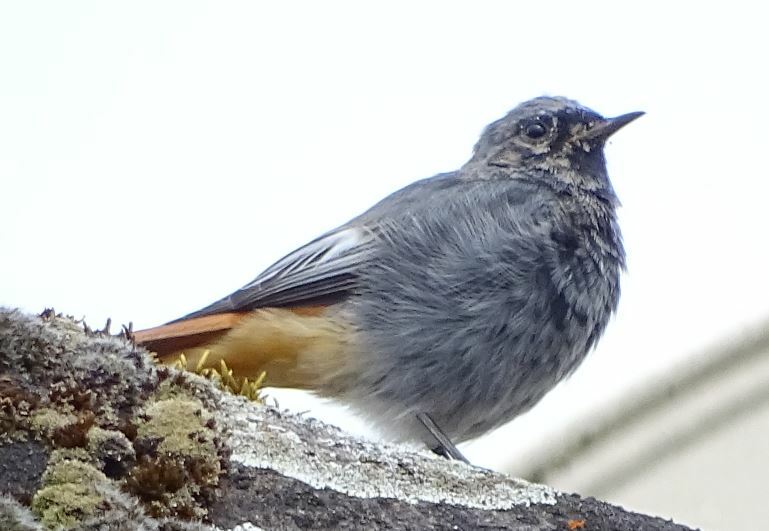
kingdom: Animalia
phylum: Chordata
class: Aves
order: Passeriformes
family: Muscicapidae
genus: Phoenicurus
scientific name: Phoenicurus ochruros
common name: Black redstart
